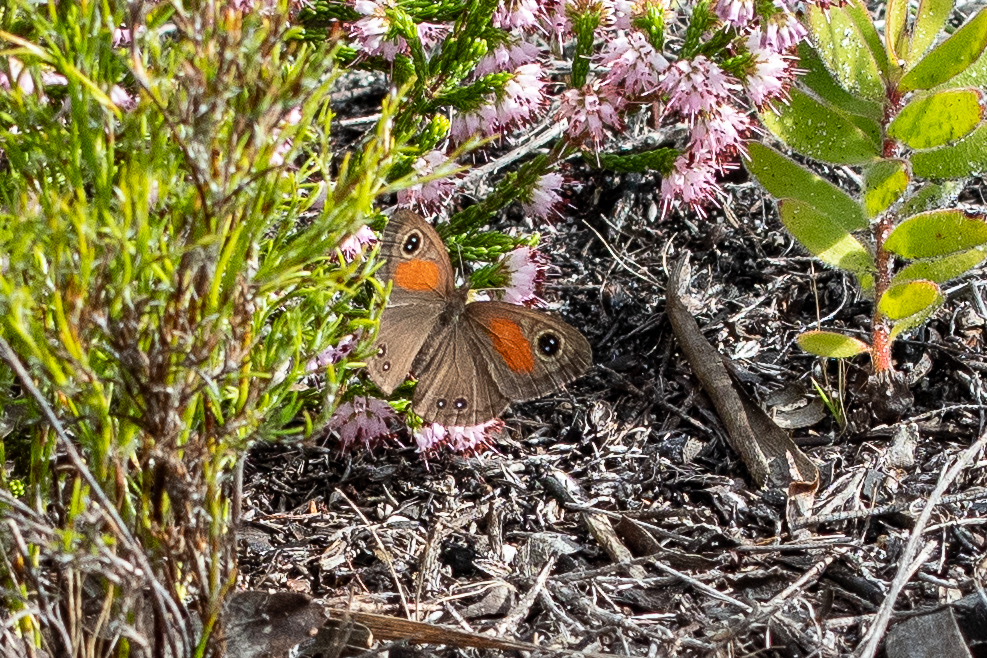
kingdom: Animalia
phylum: Arthropoda
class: Insecta
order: Lepidoptera
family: Nymphalidae
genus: Cassionympha
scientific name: Cassionympha cassius
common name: Rainforest brown
